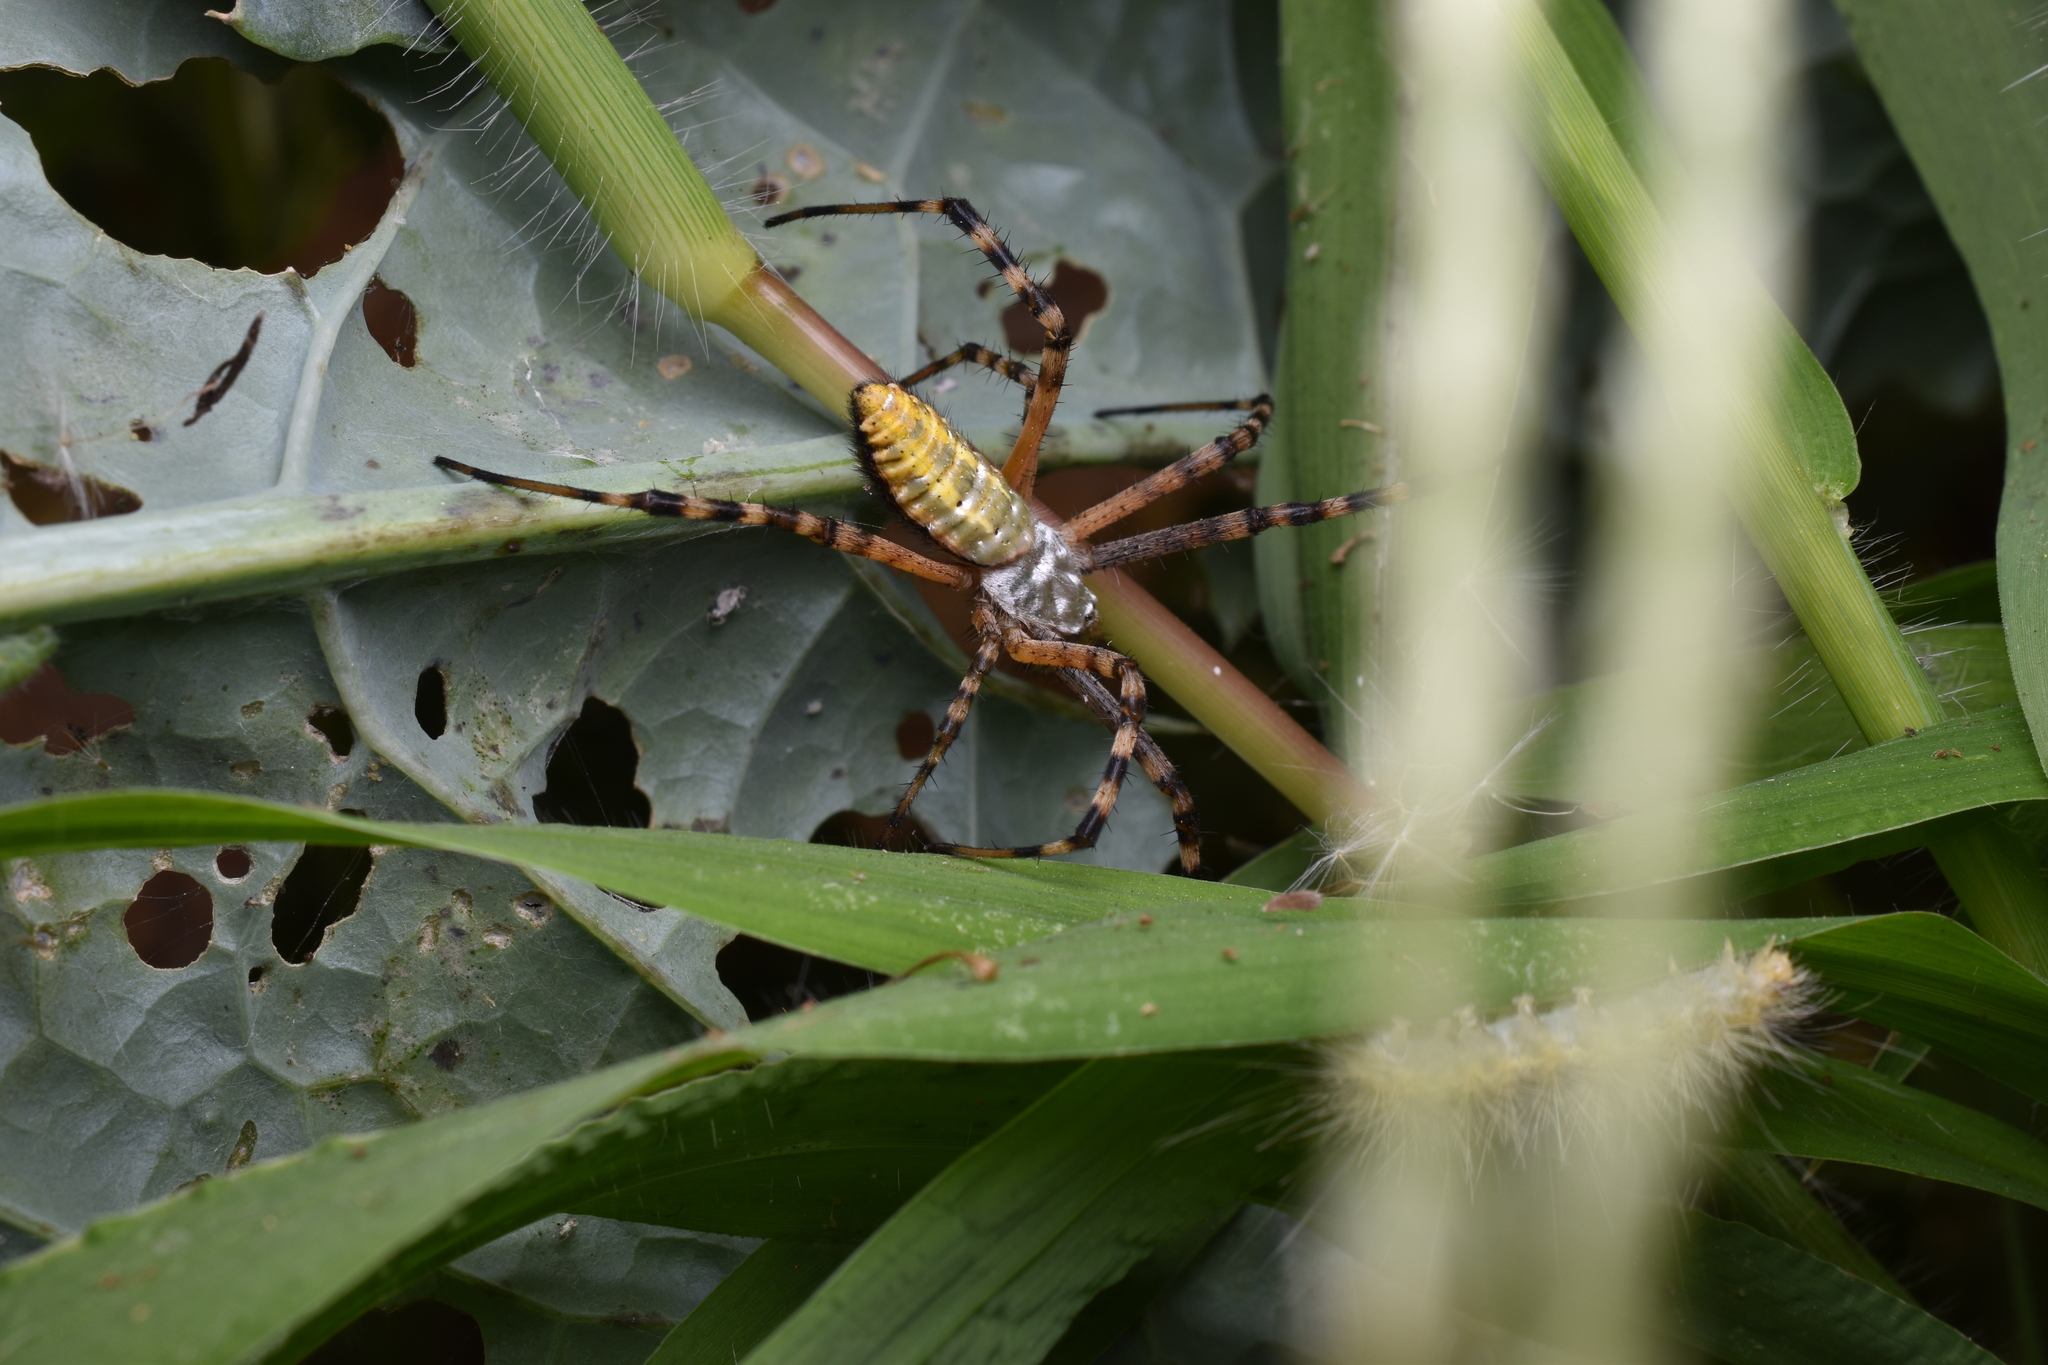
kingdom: Animalia
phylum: Arthropoda
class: Arachnida
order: Araneae
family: Araneidae
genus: Argiope
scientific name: Argiope trifasciata
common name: Banded garden spider
